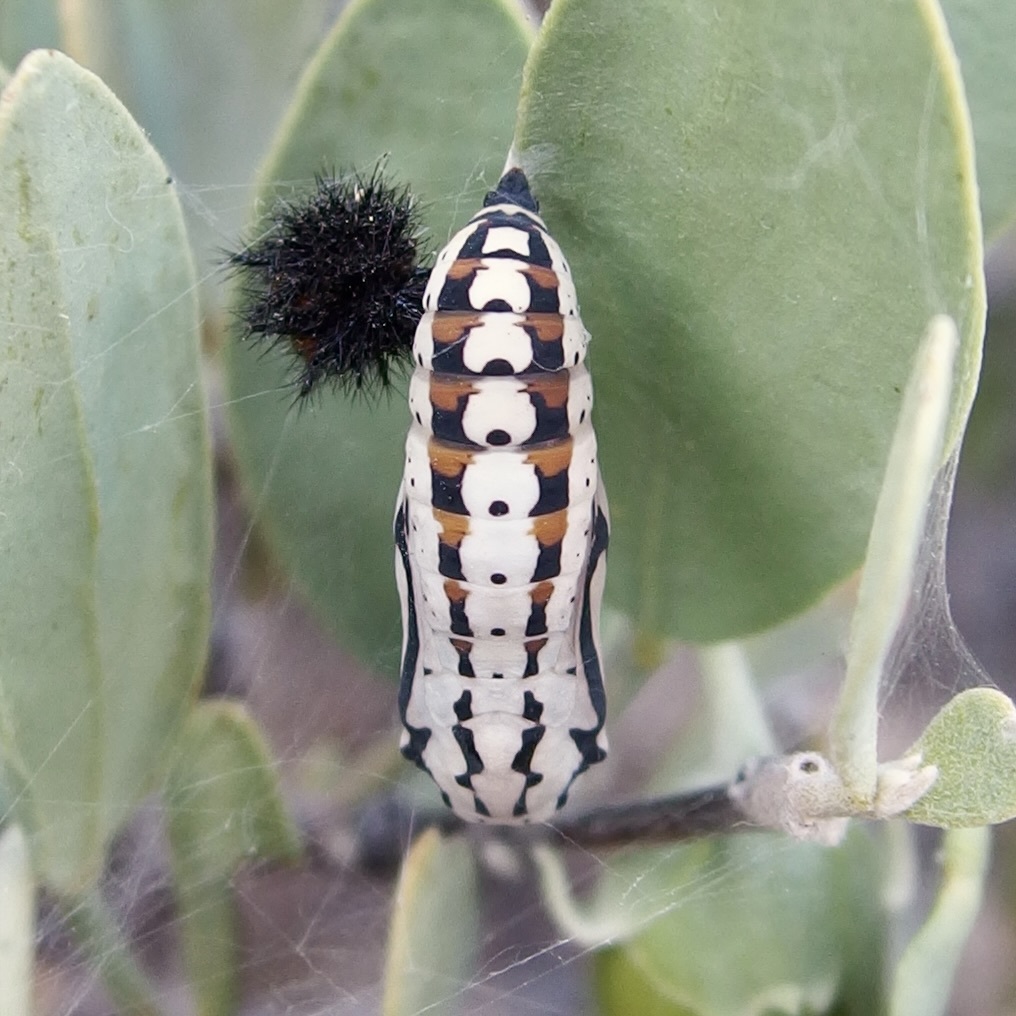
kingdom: Animalia
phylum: Arthropoda
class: Insecta
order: Lepidoptera
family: Nymphalidae
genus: Chlosyne
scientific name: Chlosyne eumeda
